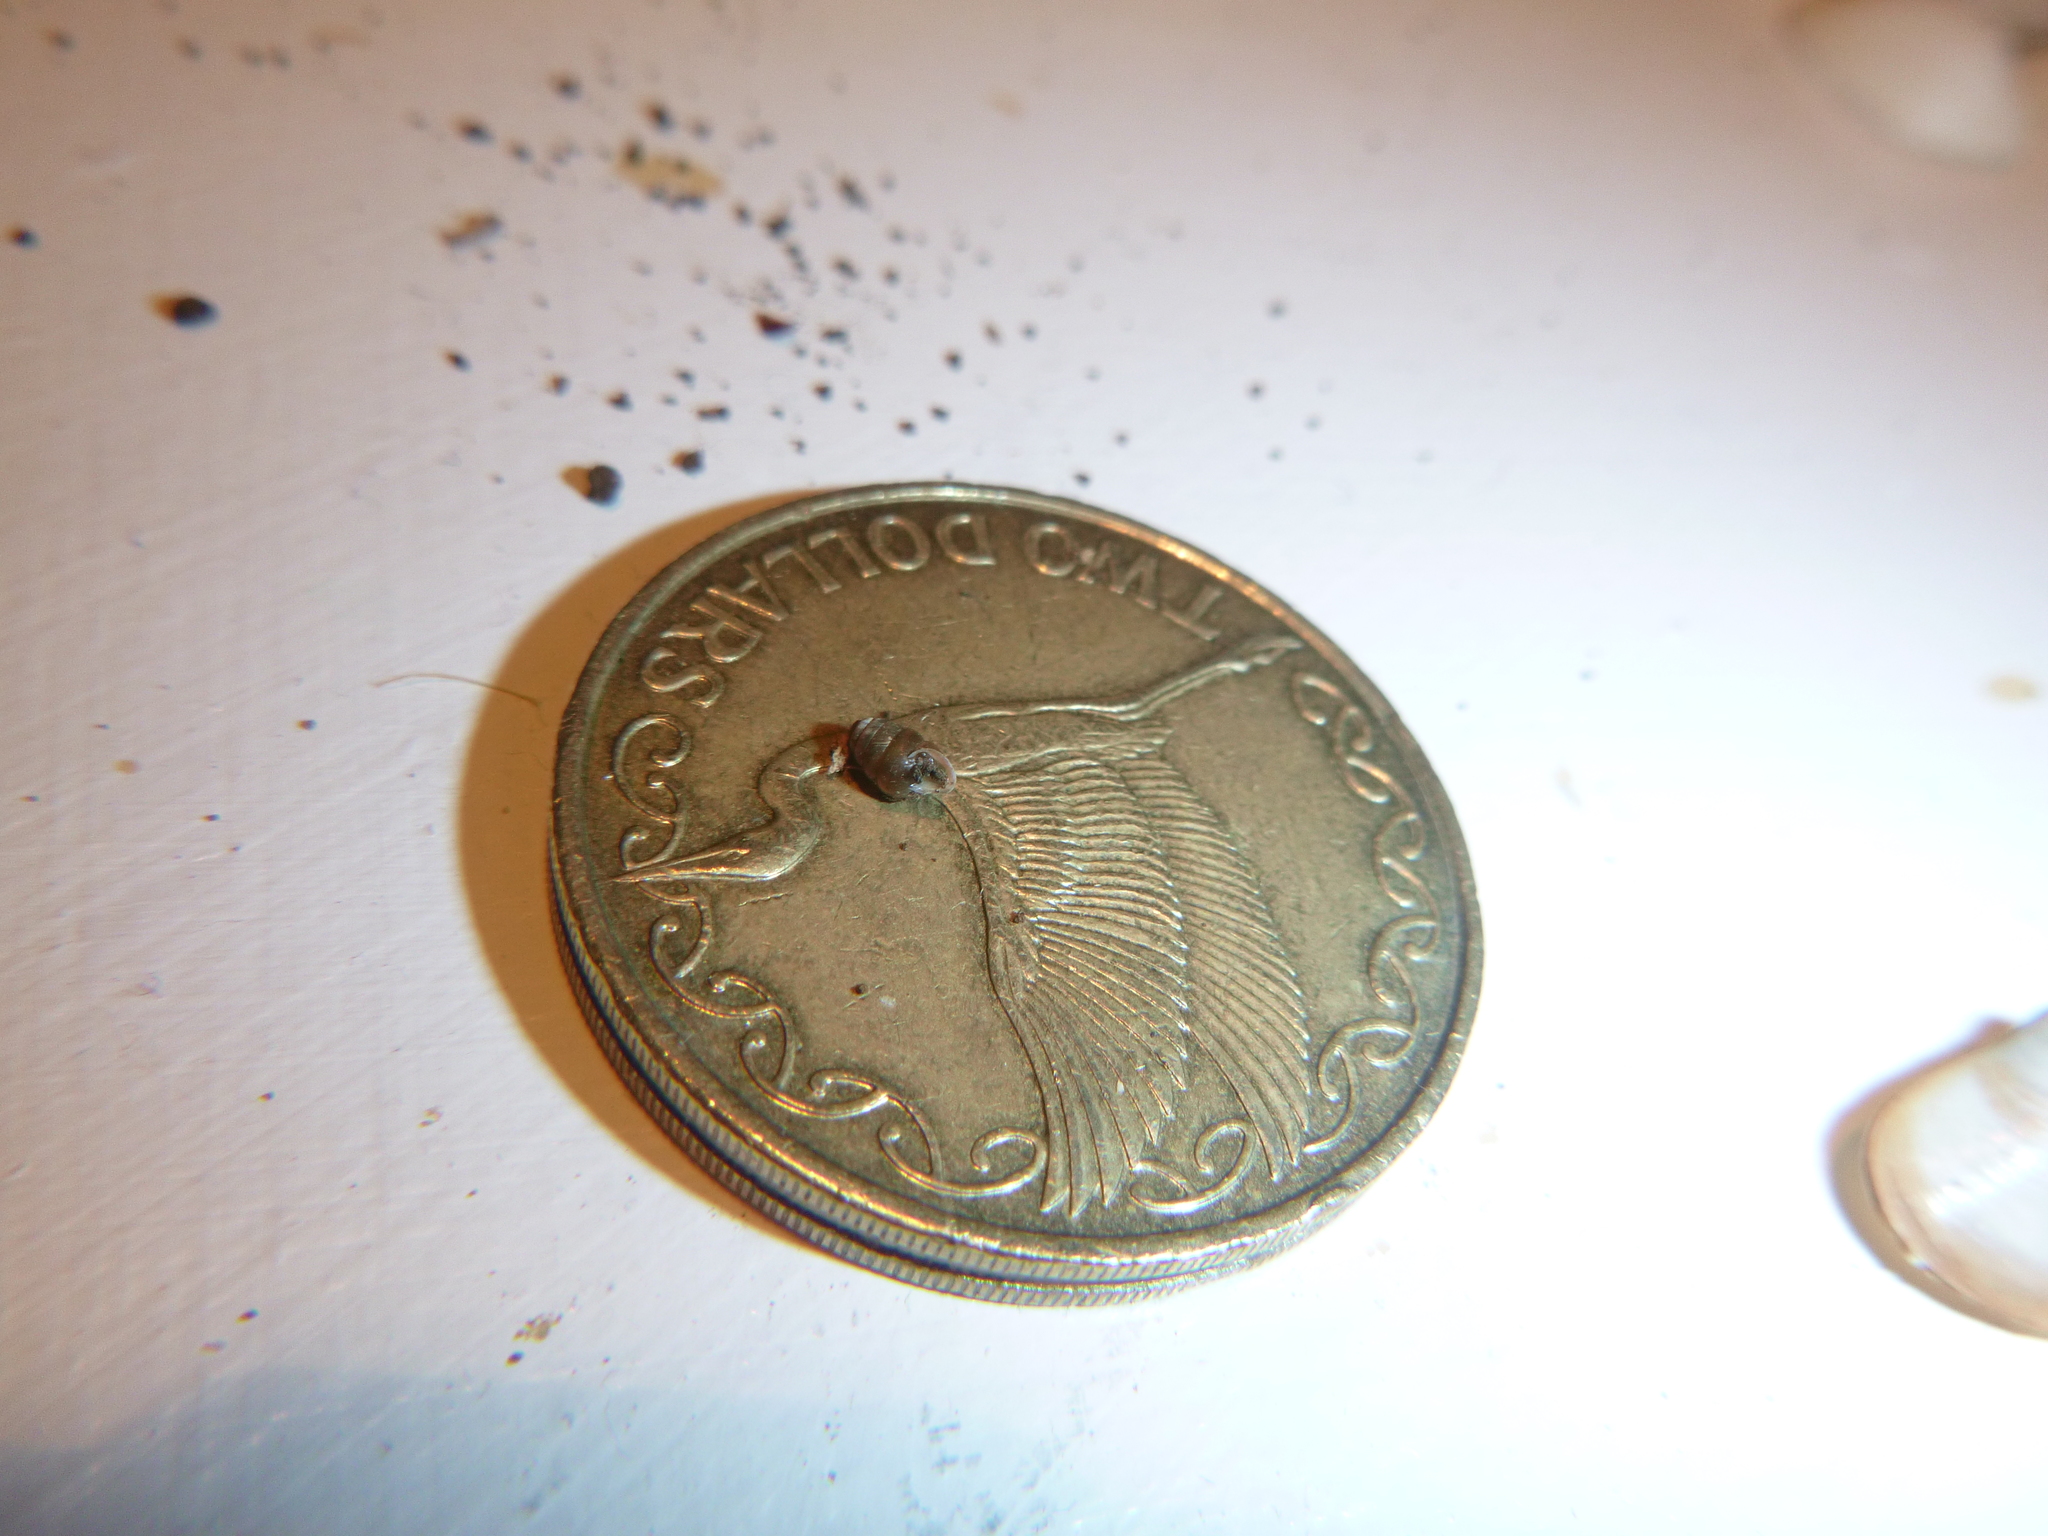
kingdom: Animalia
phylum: Mollusca
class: Gastropoda
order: Stylommatophora
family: Lauriidae
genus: Lauria
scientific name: Lauria cylindracea
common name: Common chrysalis snail
